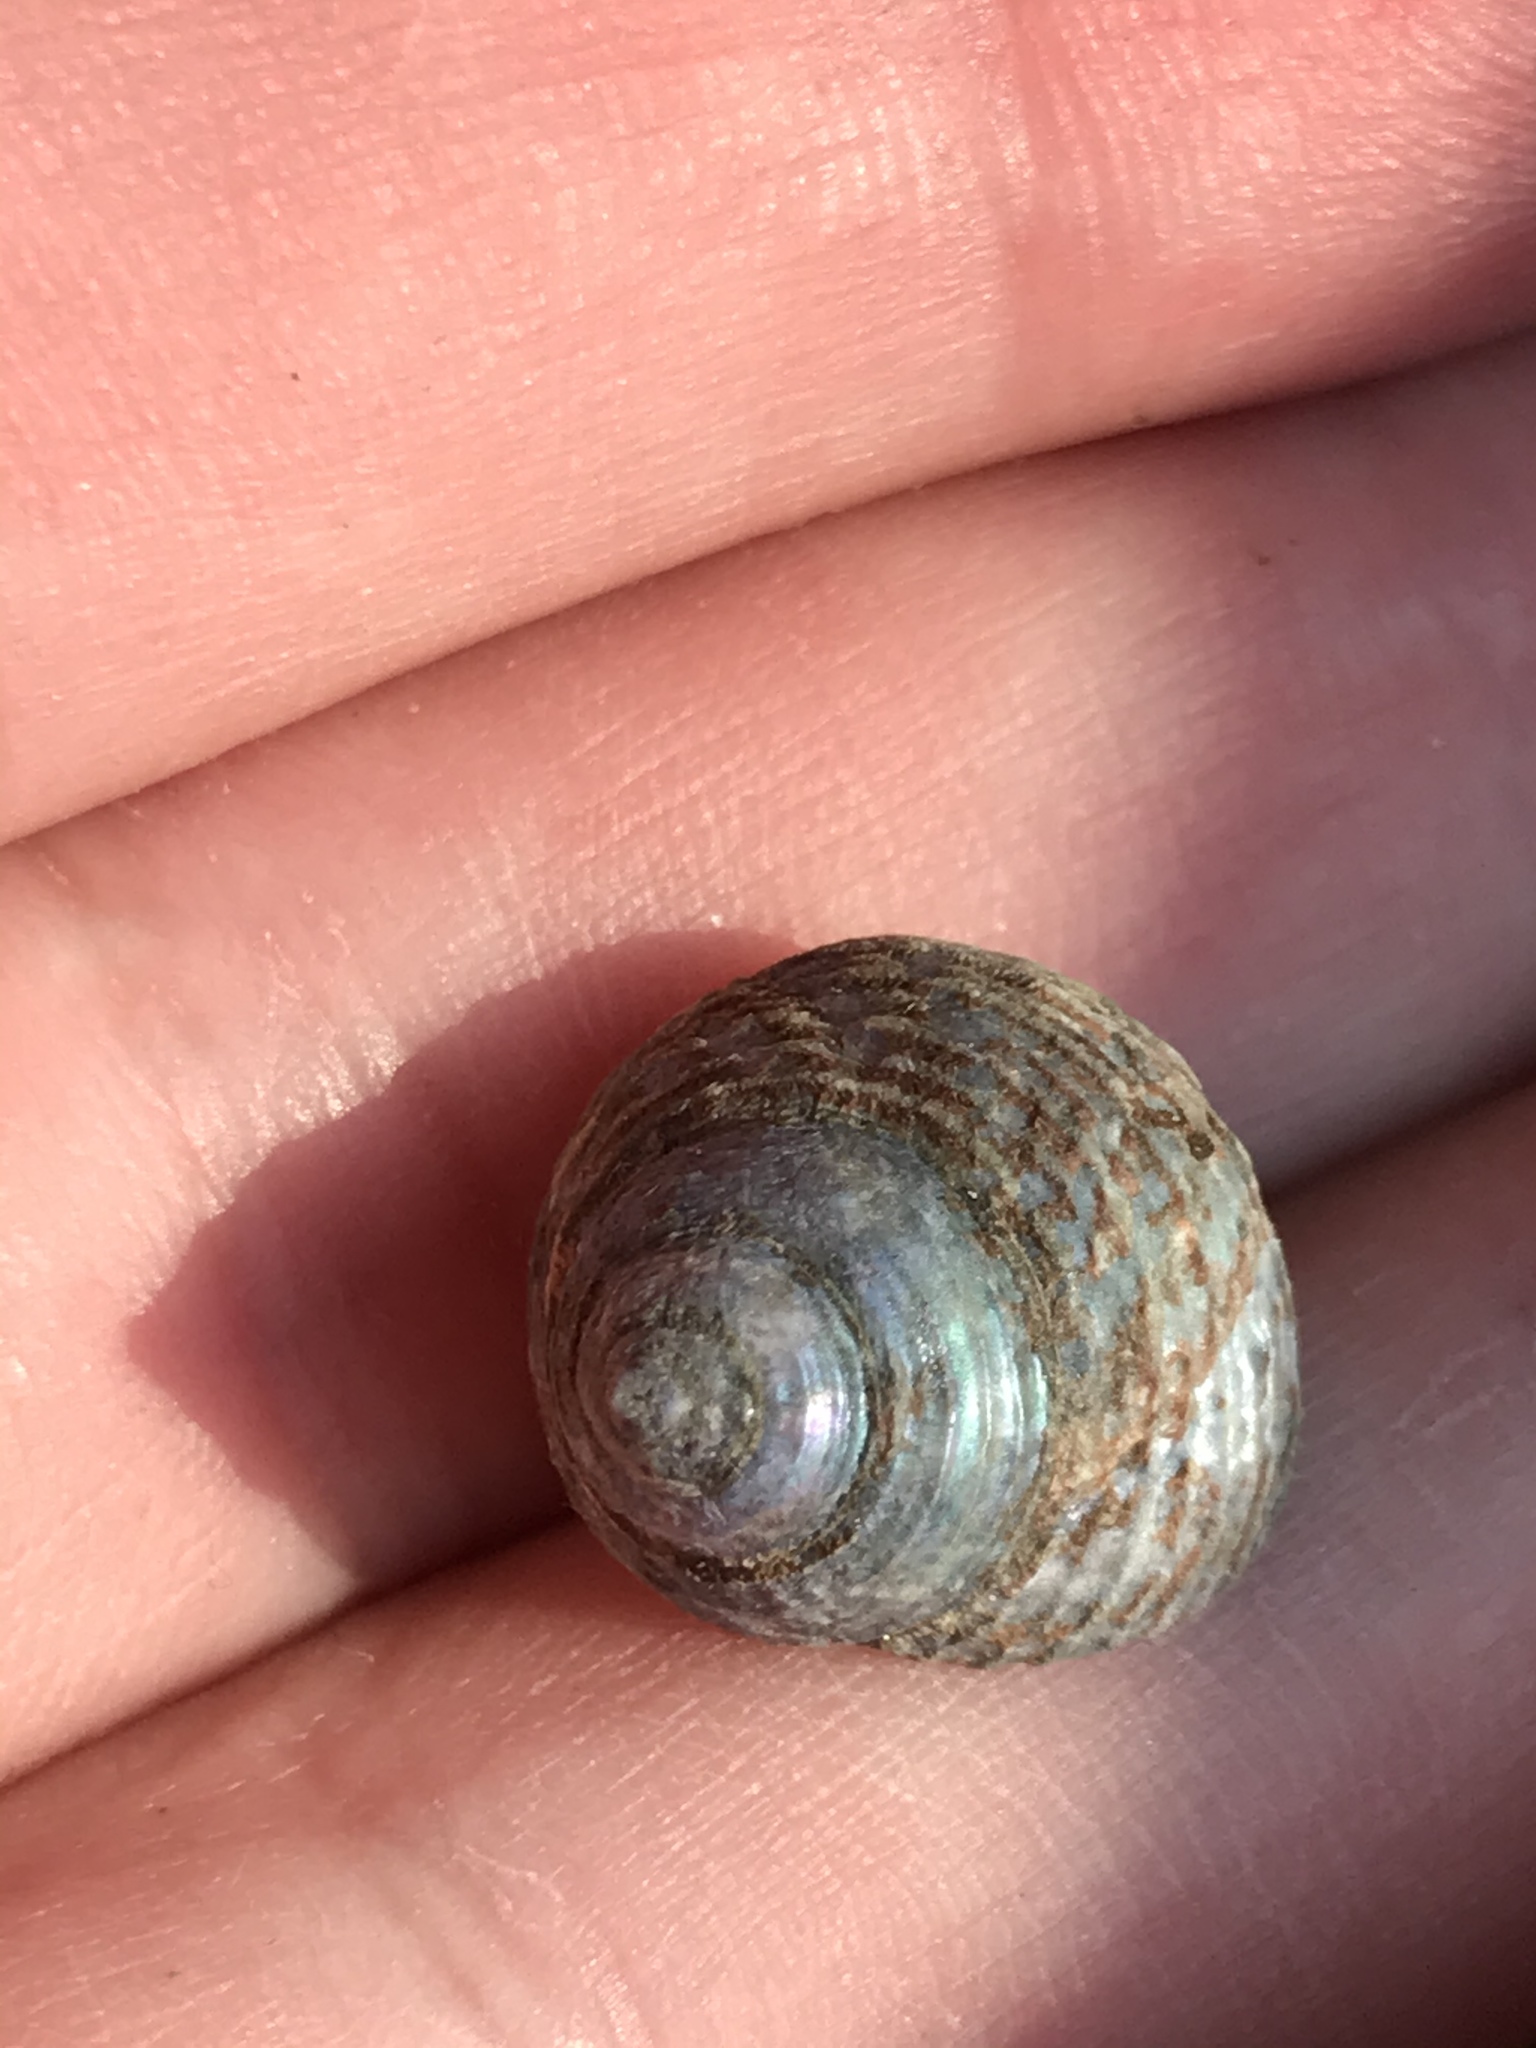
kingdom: Animalia
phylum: Mollusca
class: Gastropoda
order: Trochida
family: Calliostomatidae
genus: Calliostoma
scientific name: Calliostoma ligatum
